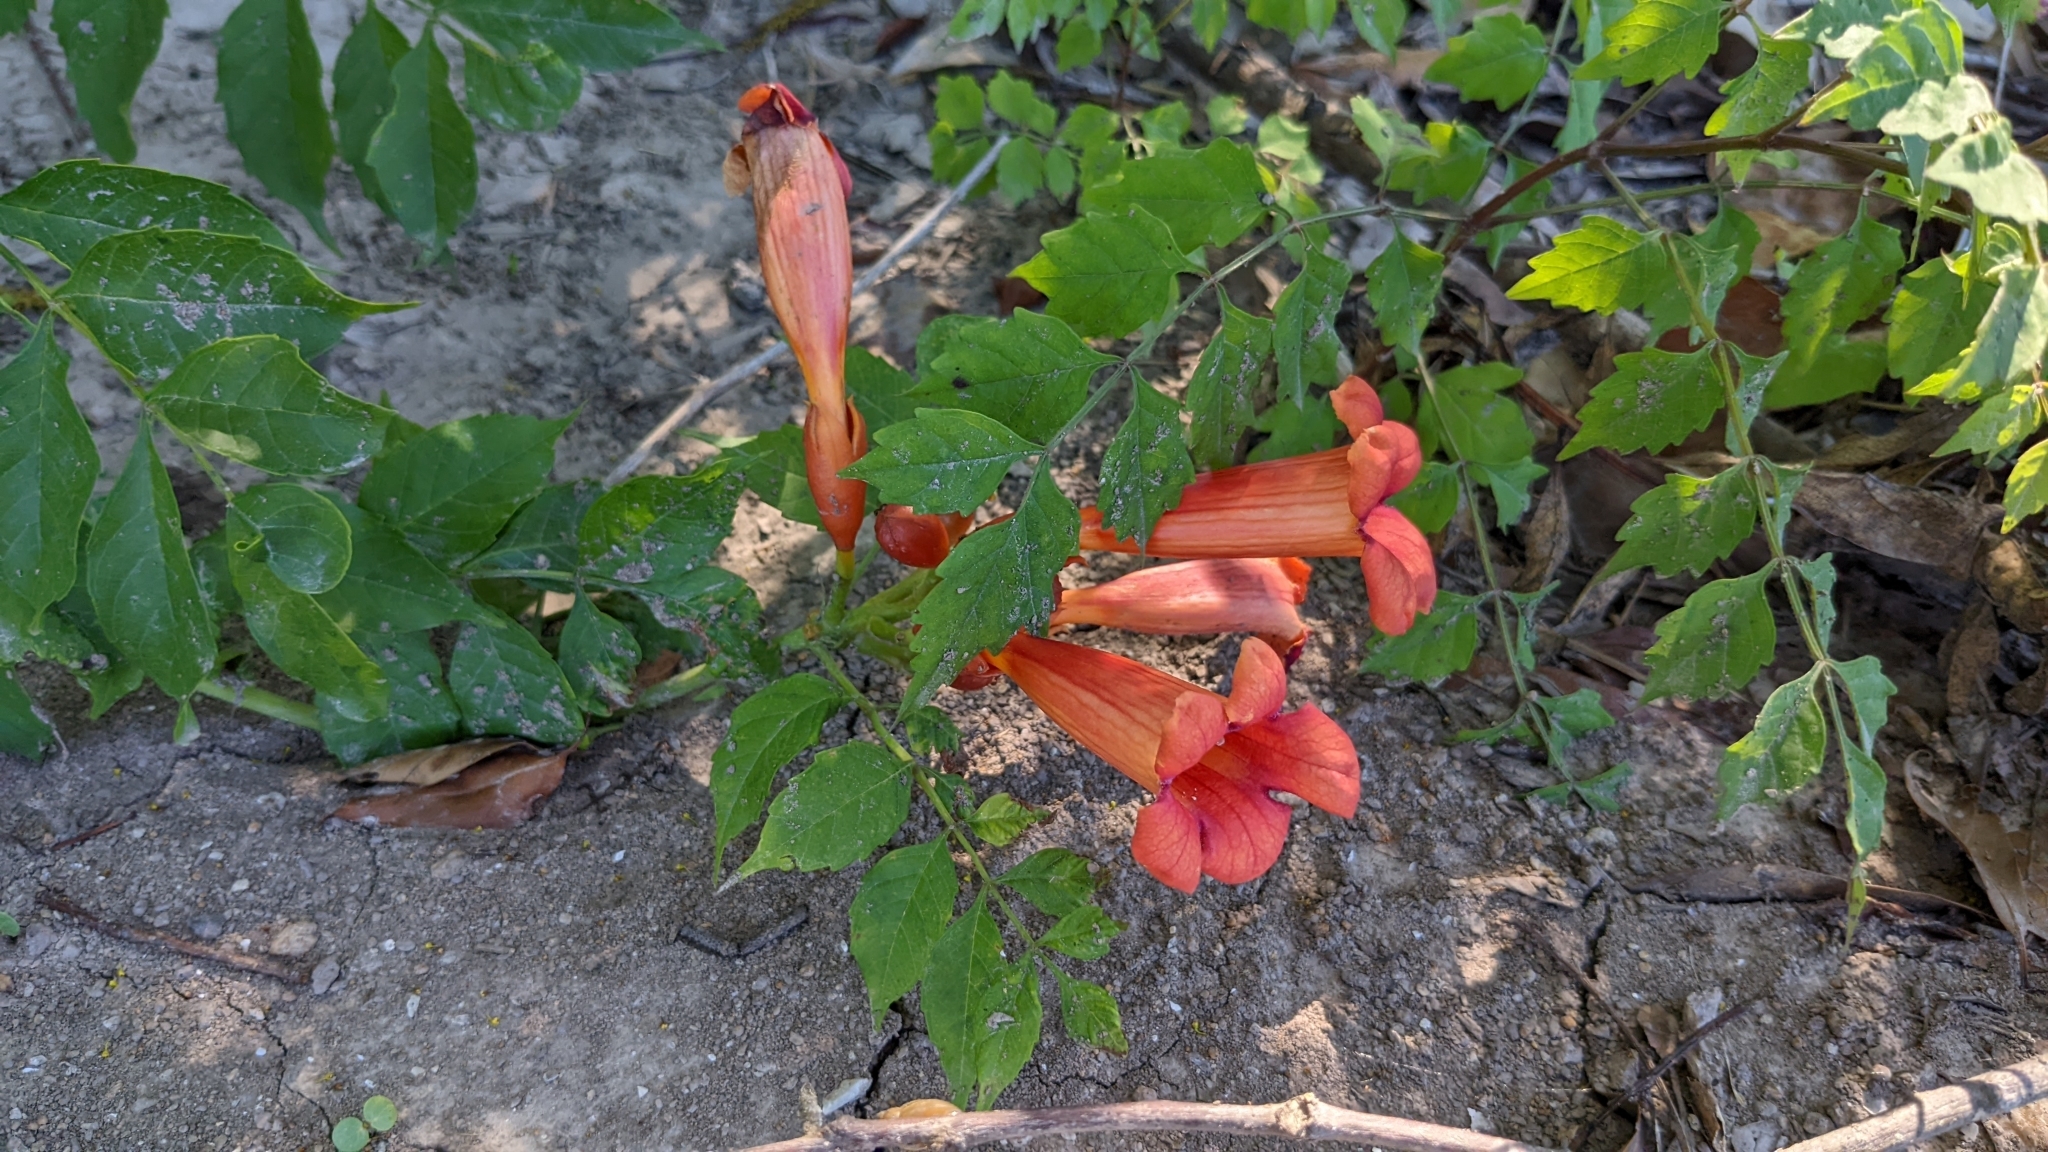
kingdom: Plantae
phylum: Tracheophyta
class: Magnoliopsida
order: Lamiales
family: Bignoniaceae
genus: Campsis
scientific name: Campsis radicans
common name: Trumpet-creeper
